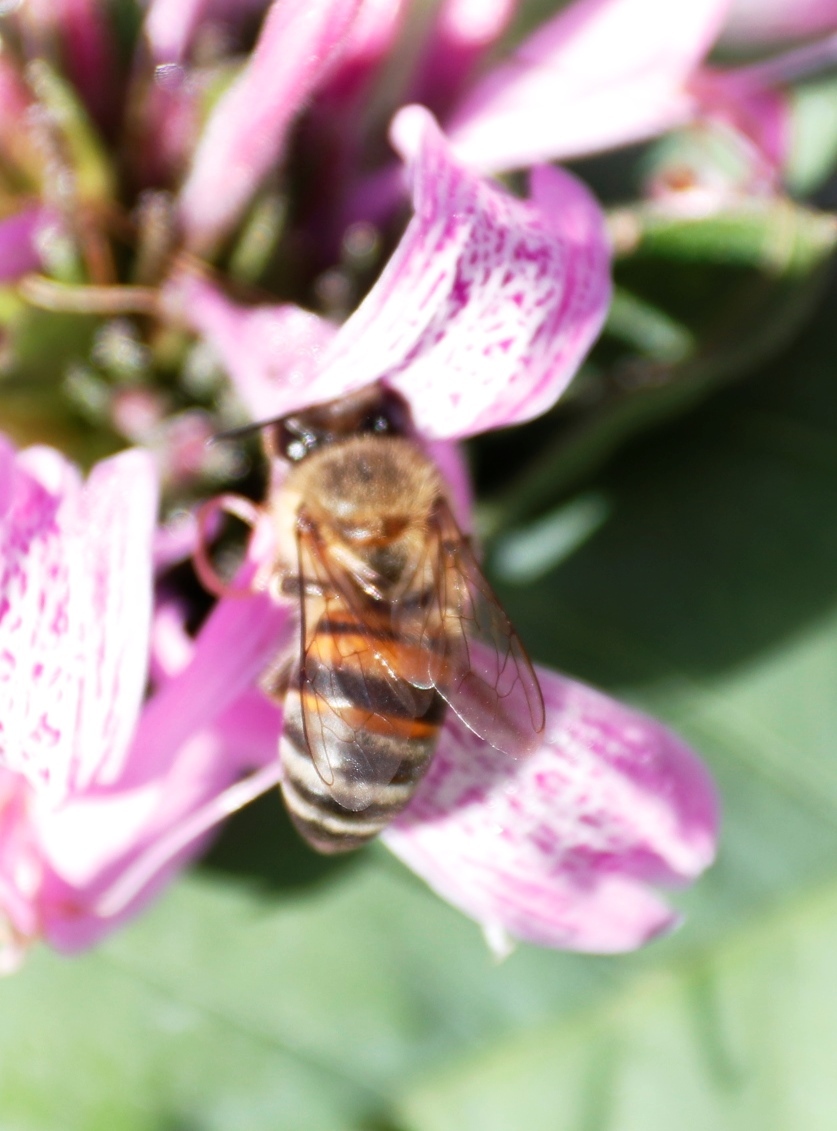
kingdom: Animalia
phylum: Arthropoda
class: Insecta
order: Hymenoptera
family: Apidae
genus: Apis
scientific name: Apis mellifera
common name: Honey bee
